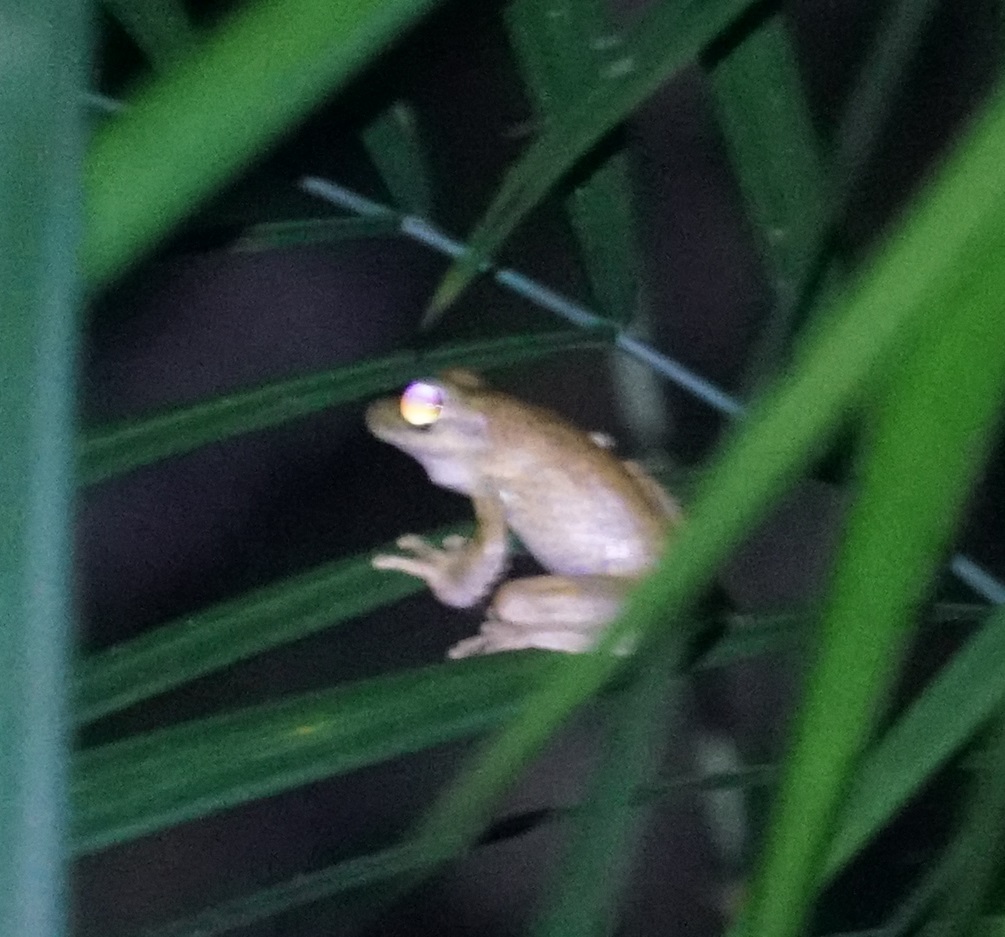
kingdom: Animalia
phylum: Chordata
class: Amphibia
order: Anura
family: Hylidae
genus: Ranoidea
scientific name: Ranoidea
